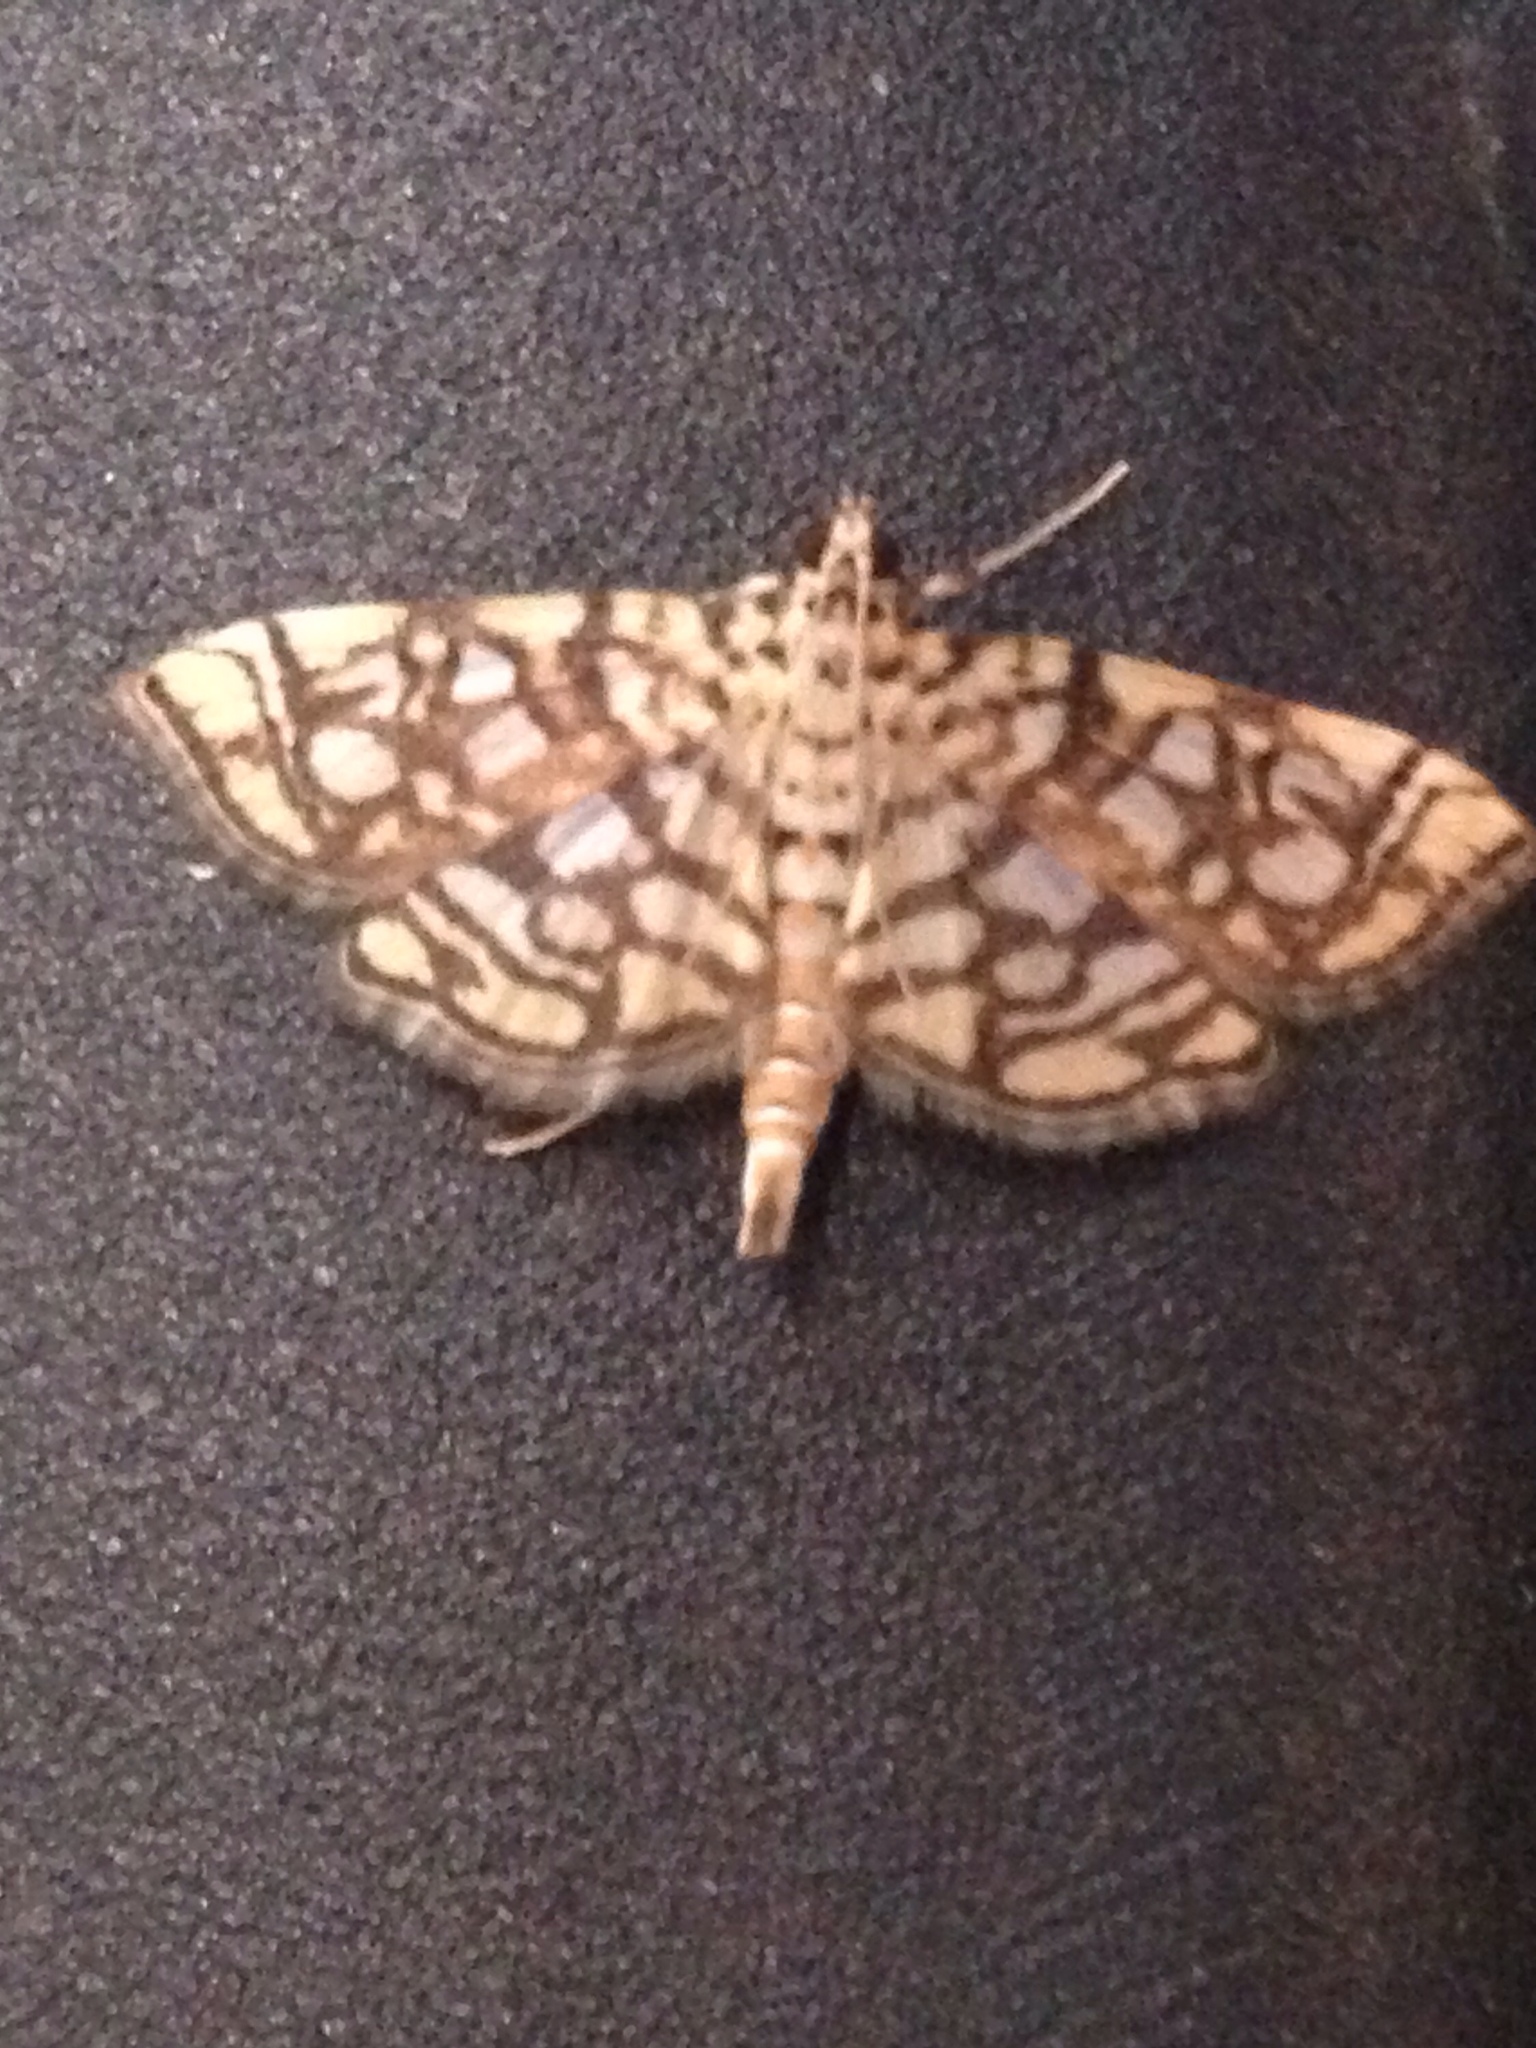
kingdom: Animalia
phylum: Arthropoda
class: Insecta
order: Lepidoptera
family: Crambidae
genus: Lygropia
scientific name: Lygropia rivulalis
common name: Bog lygropia moth
